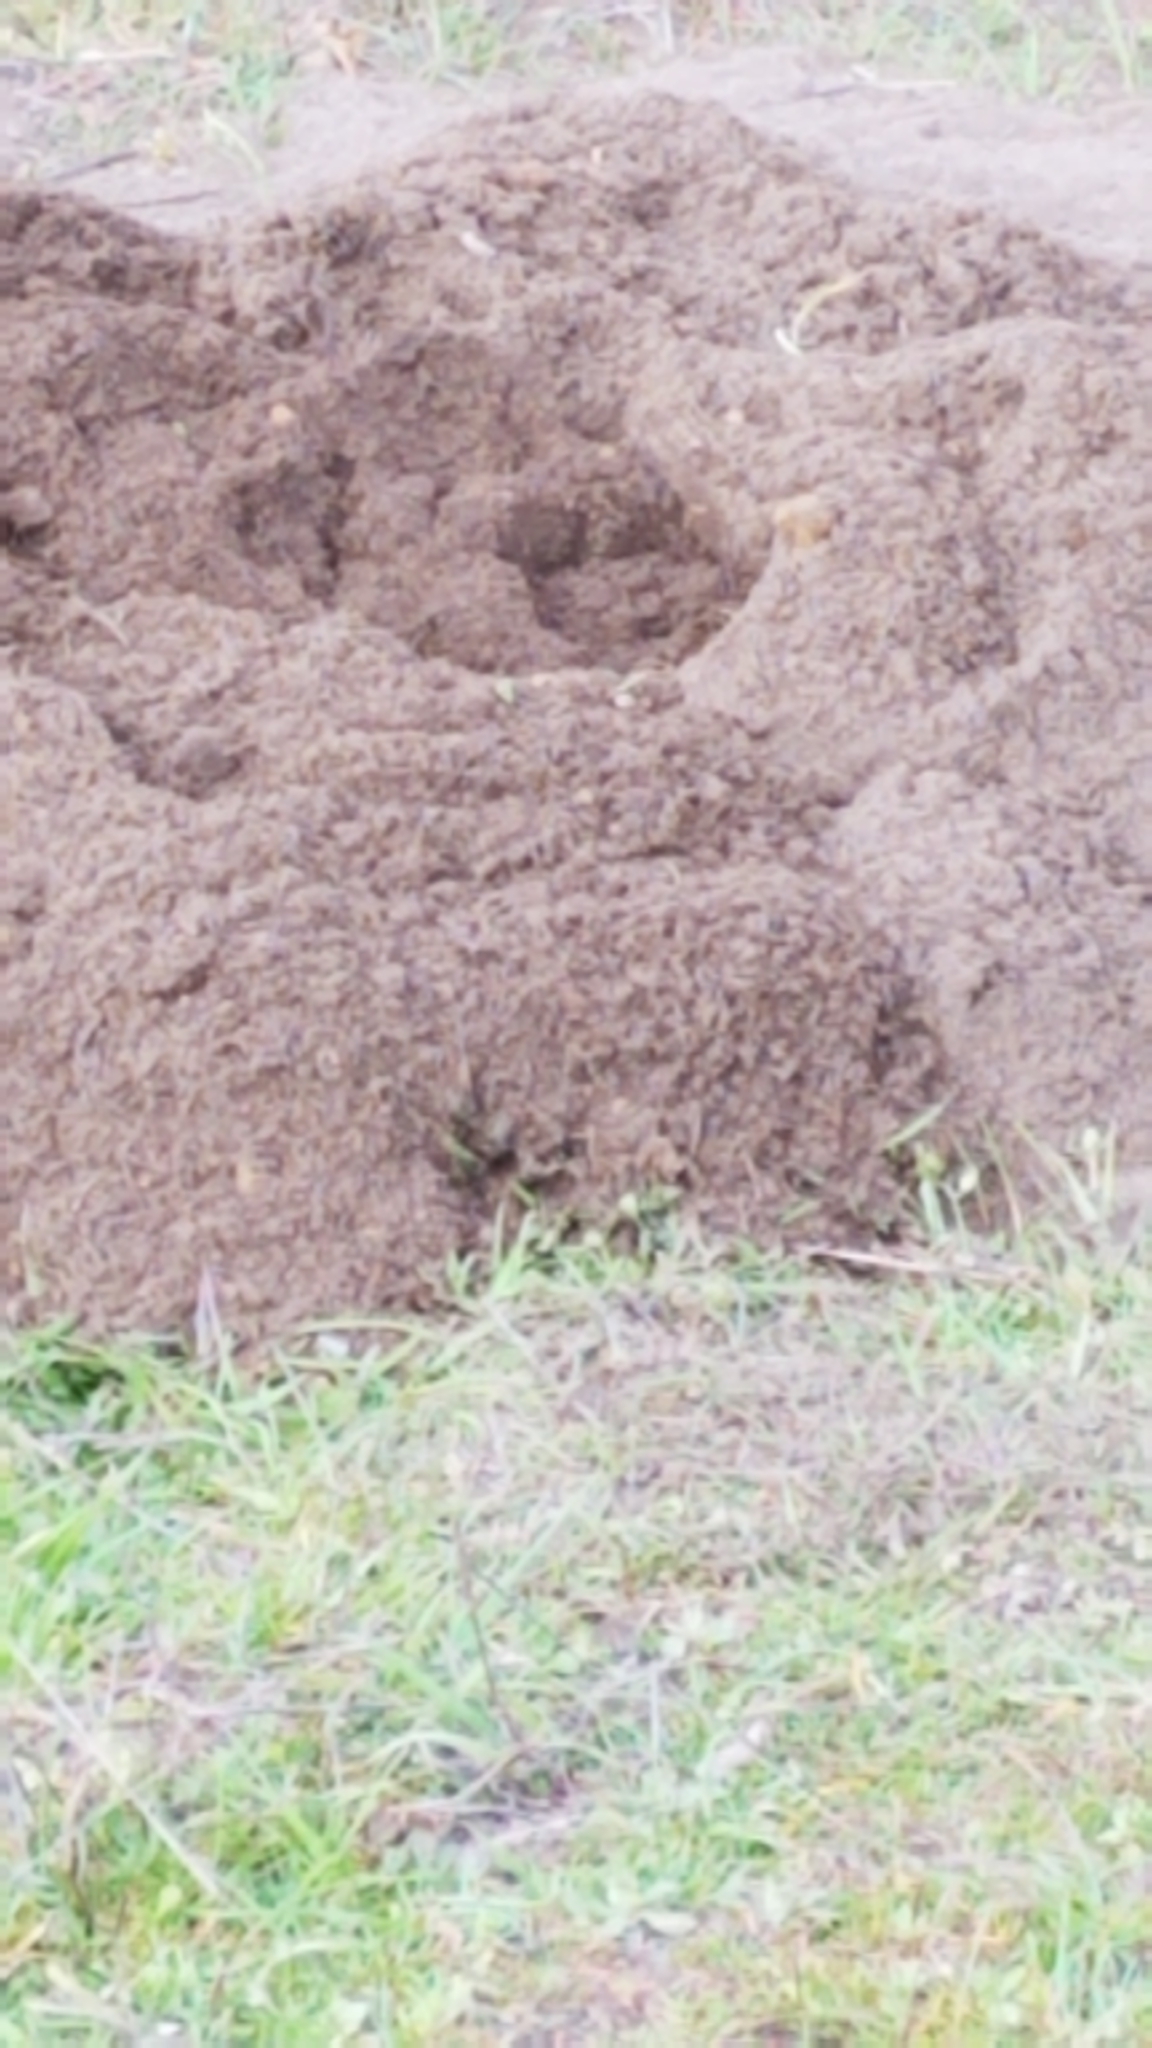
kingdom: Animalia
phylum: Chordata
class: Mammalia
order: Rodentia
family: Geomyidae
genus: Thomomys
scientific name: Thomomys bottae
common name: Botta's pocket gopher
